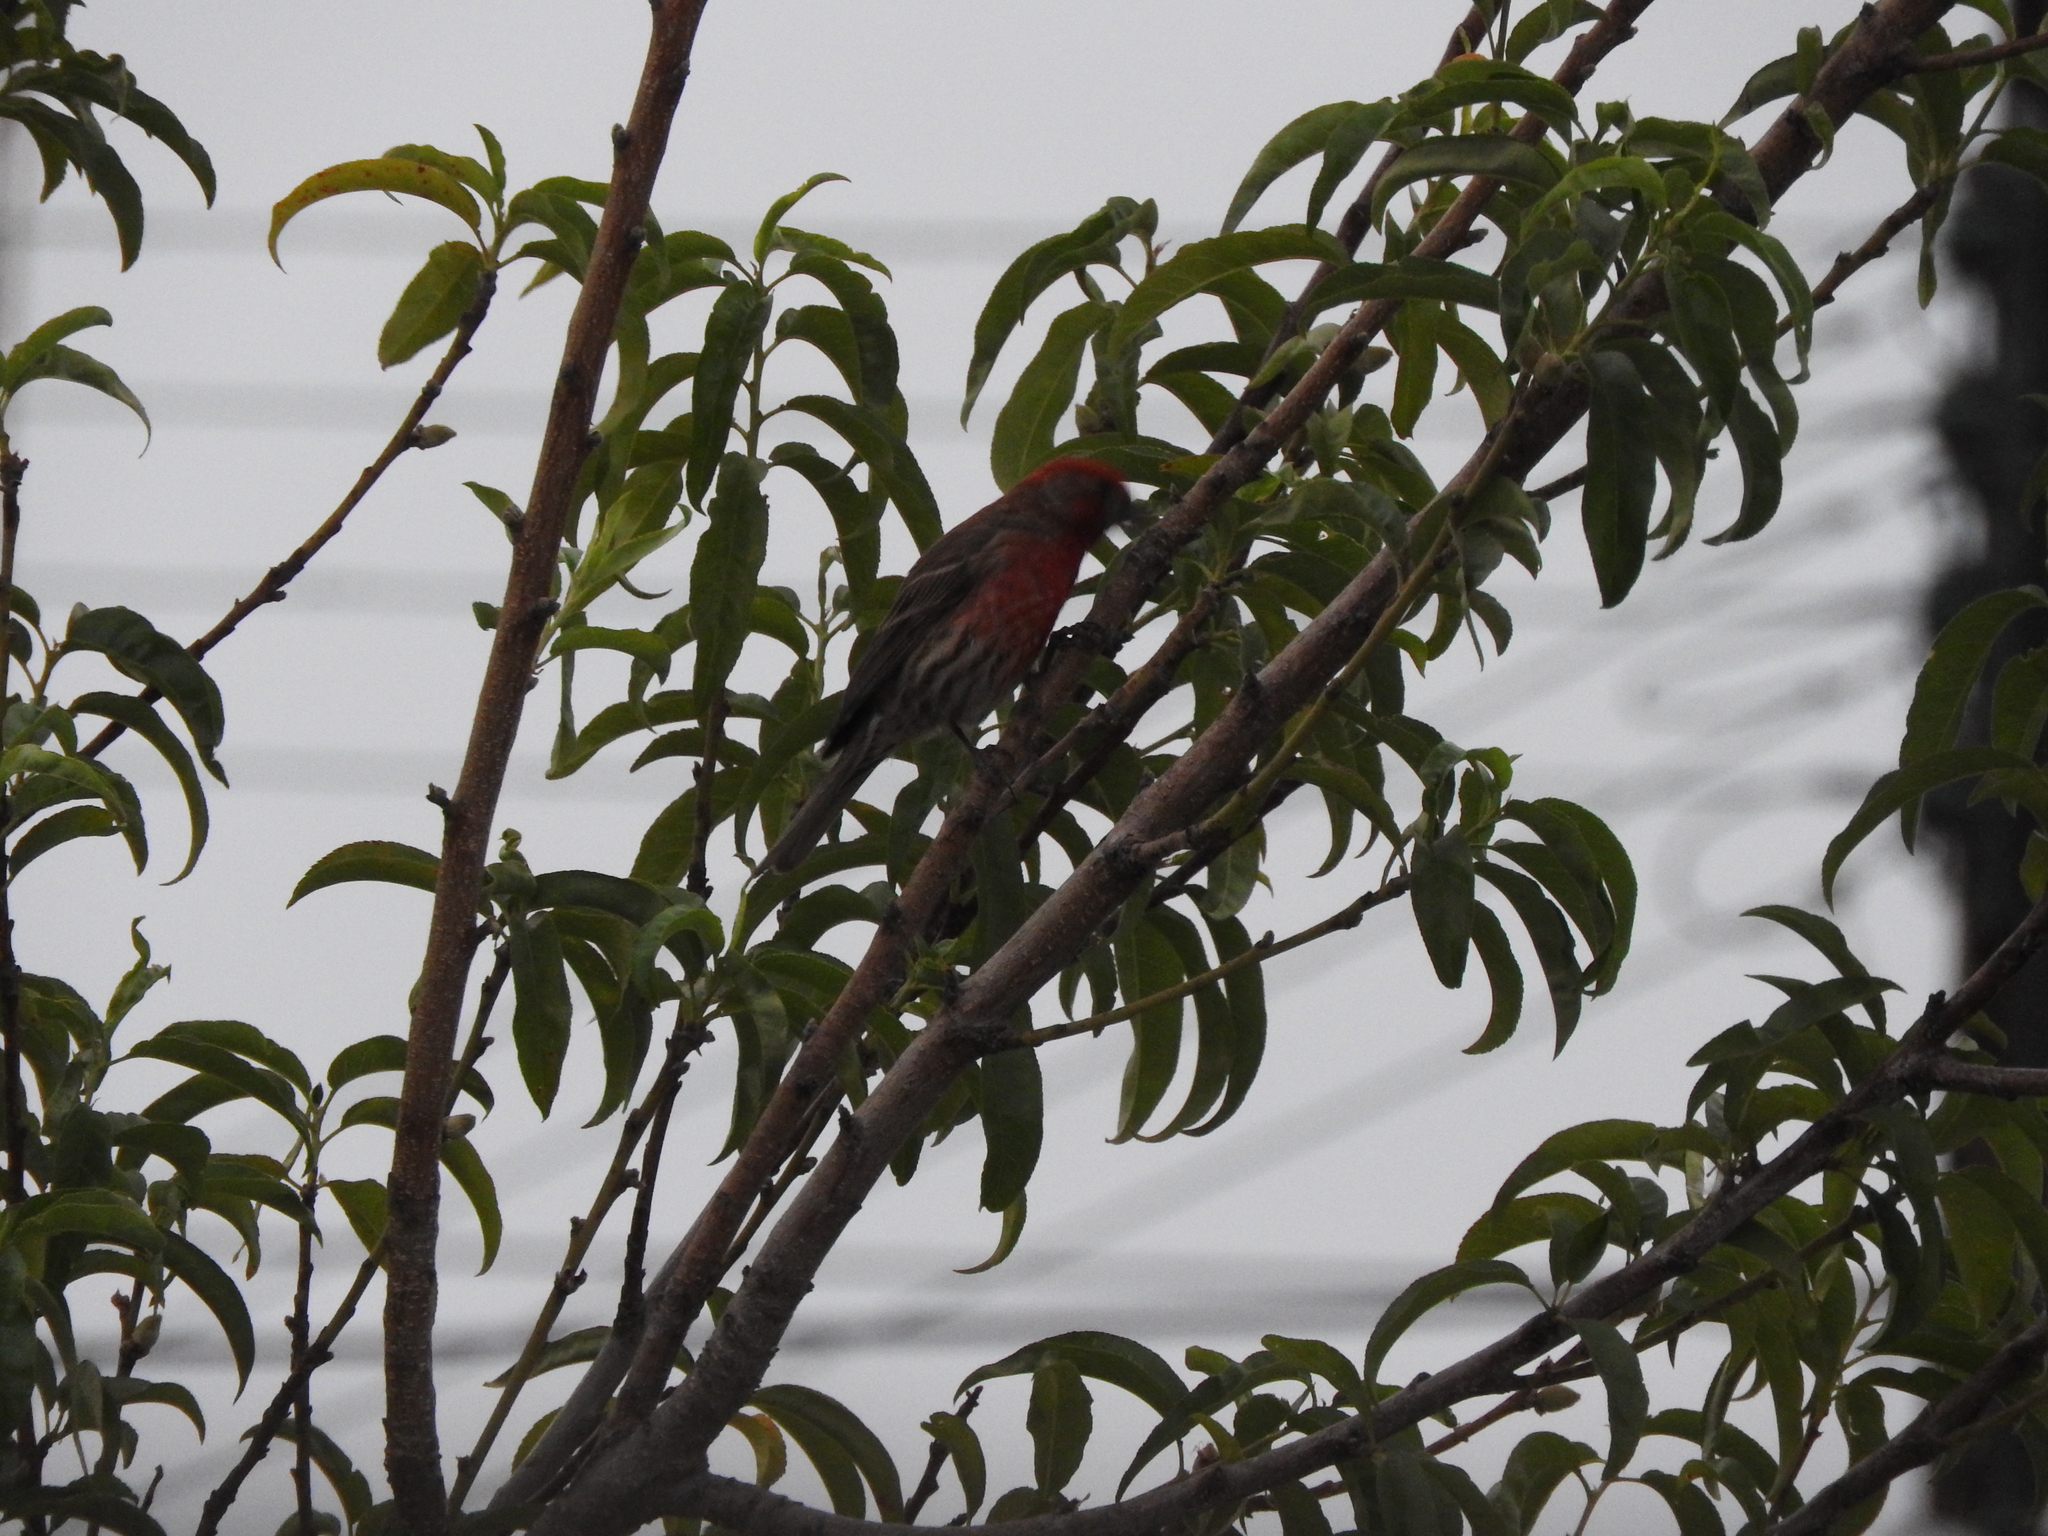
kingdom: Animalia
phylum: Chordata
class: Aves
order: Passeriformes
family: Fringillidae
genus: Haemorhous
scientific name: Haemorhous mexicanus
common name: House finch
